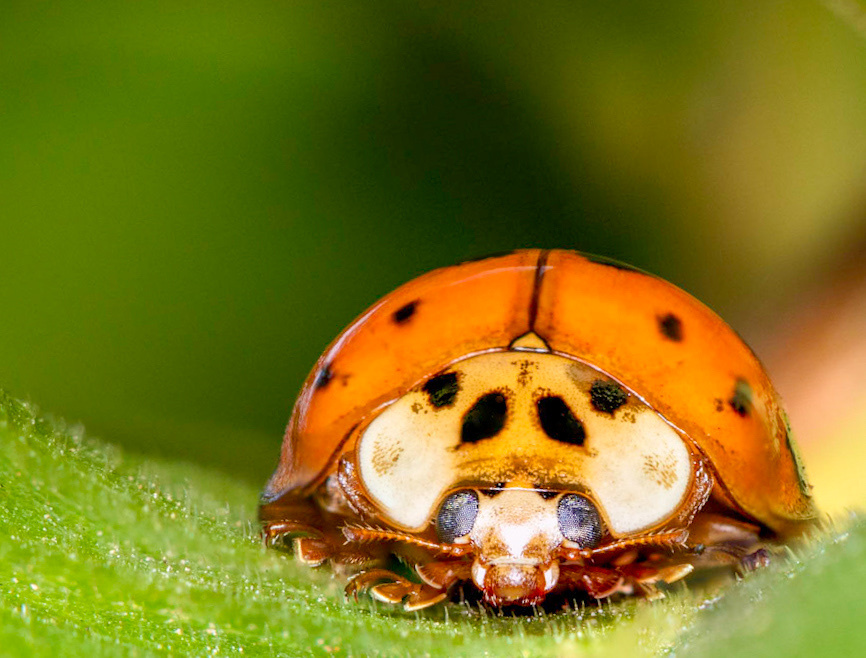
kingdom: Animalia
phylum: Arthropoda
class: Insecta
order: Coleoptera
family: Coccinellidae
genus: Harmonia
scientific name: Harmonia axyridis
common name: Harlequin ladybird
